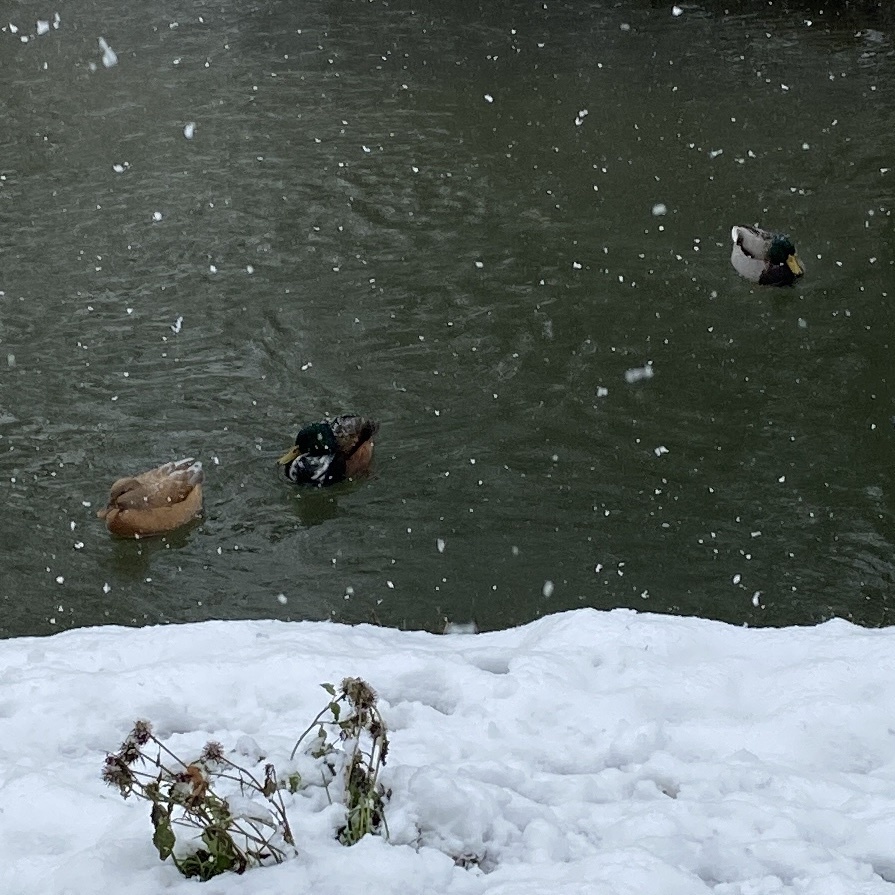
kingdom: Animalia
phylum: Chordata
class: Aves
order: Anseriformes
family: Anatidae
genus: Anas
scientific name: Anas platyrhynchos
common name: Mallard
